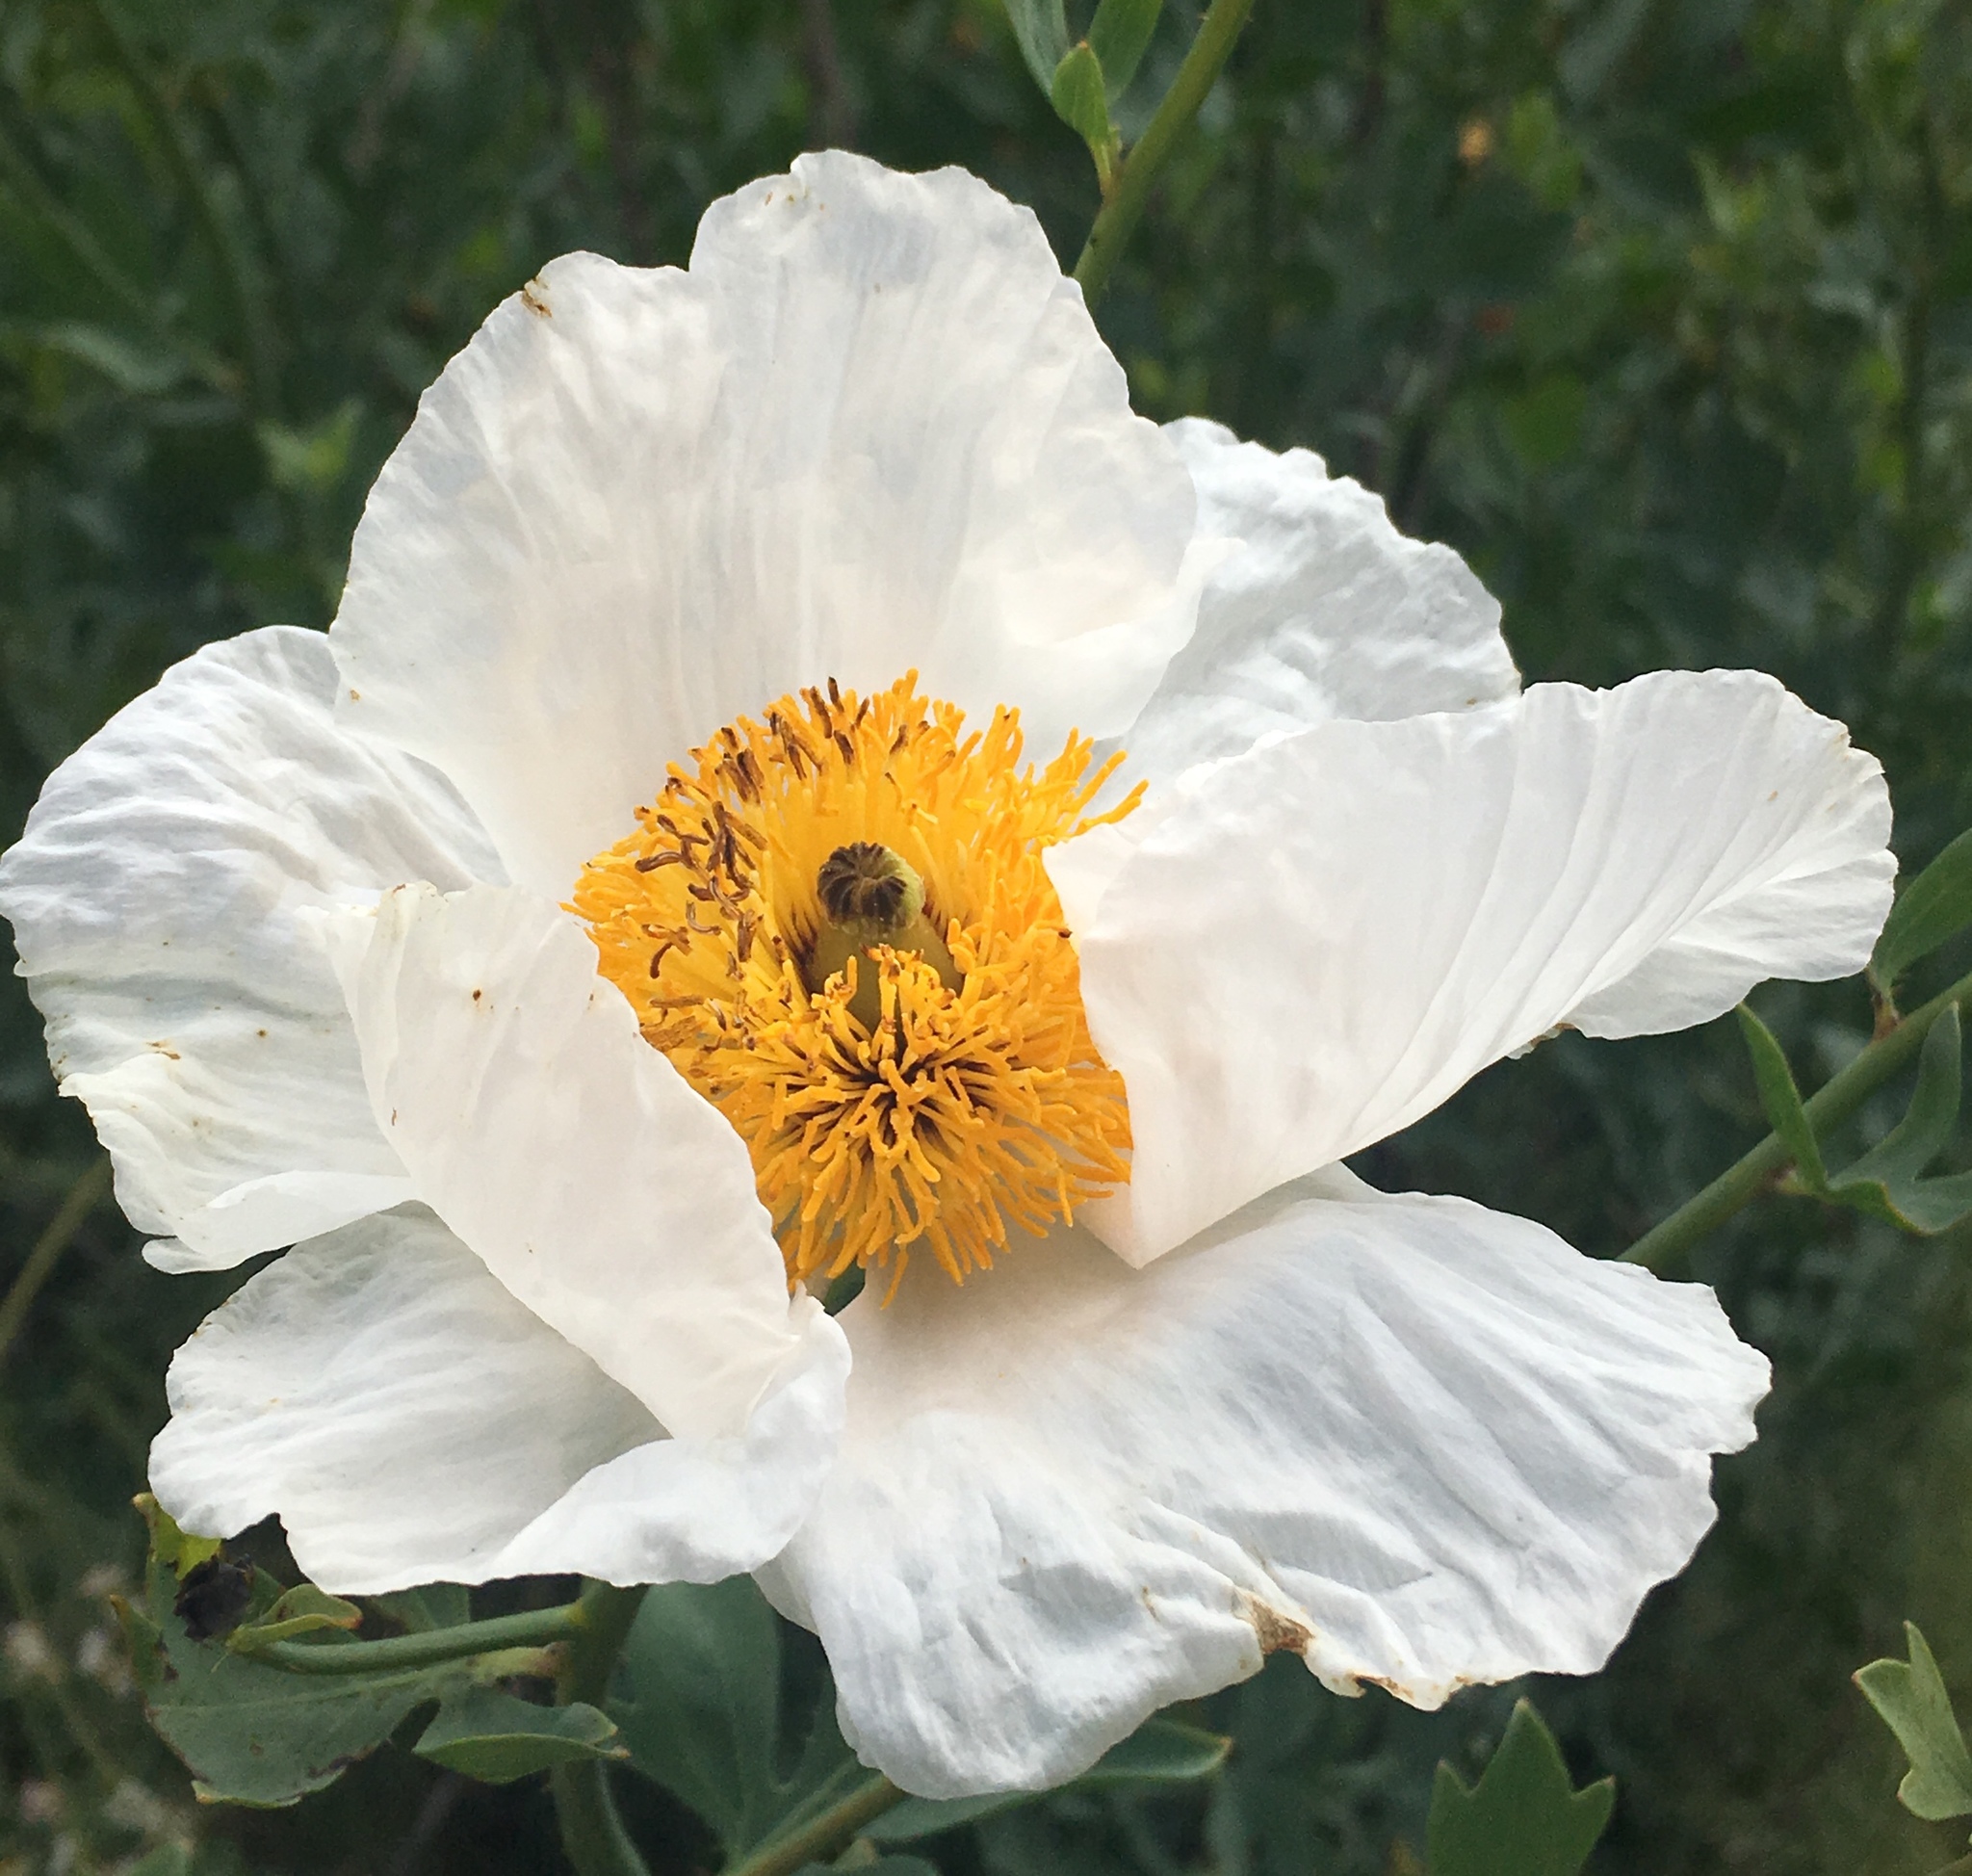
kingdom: Plantae
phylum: Tracheophyta
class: Magnoliopsida
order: Ranunculales
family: Papaveraceae
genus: Romneya
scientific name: Romneya coulteri
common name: California tree-poppy
